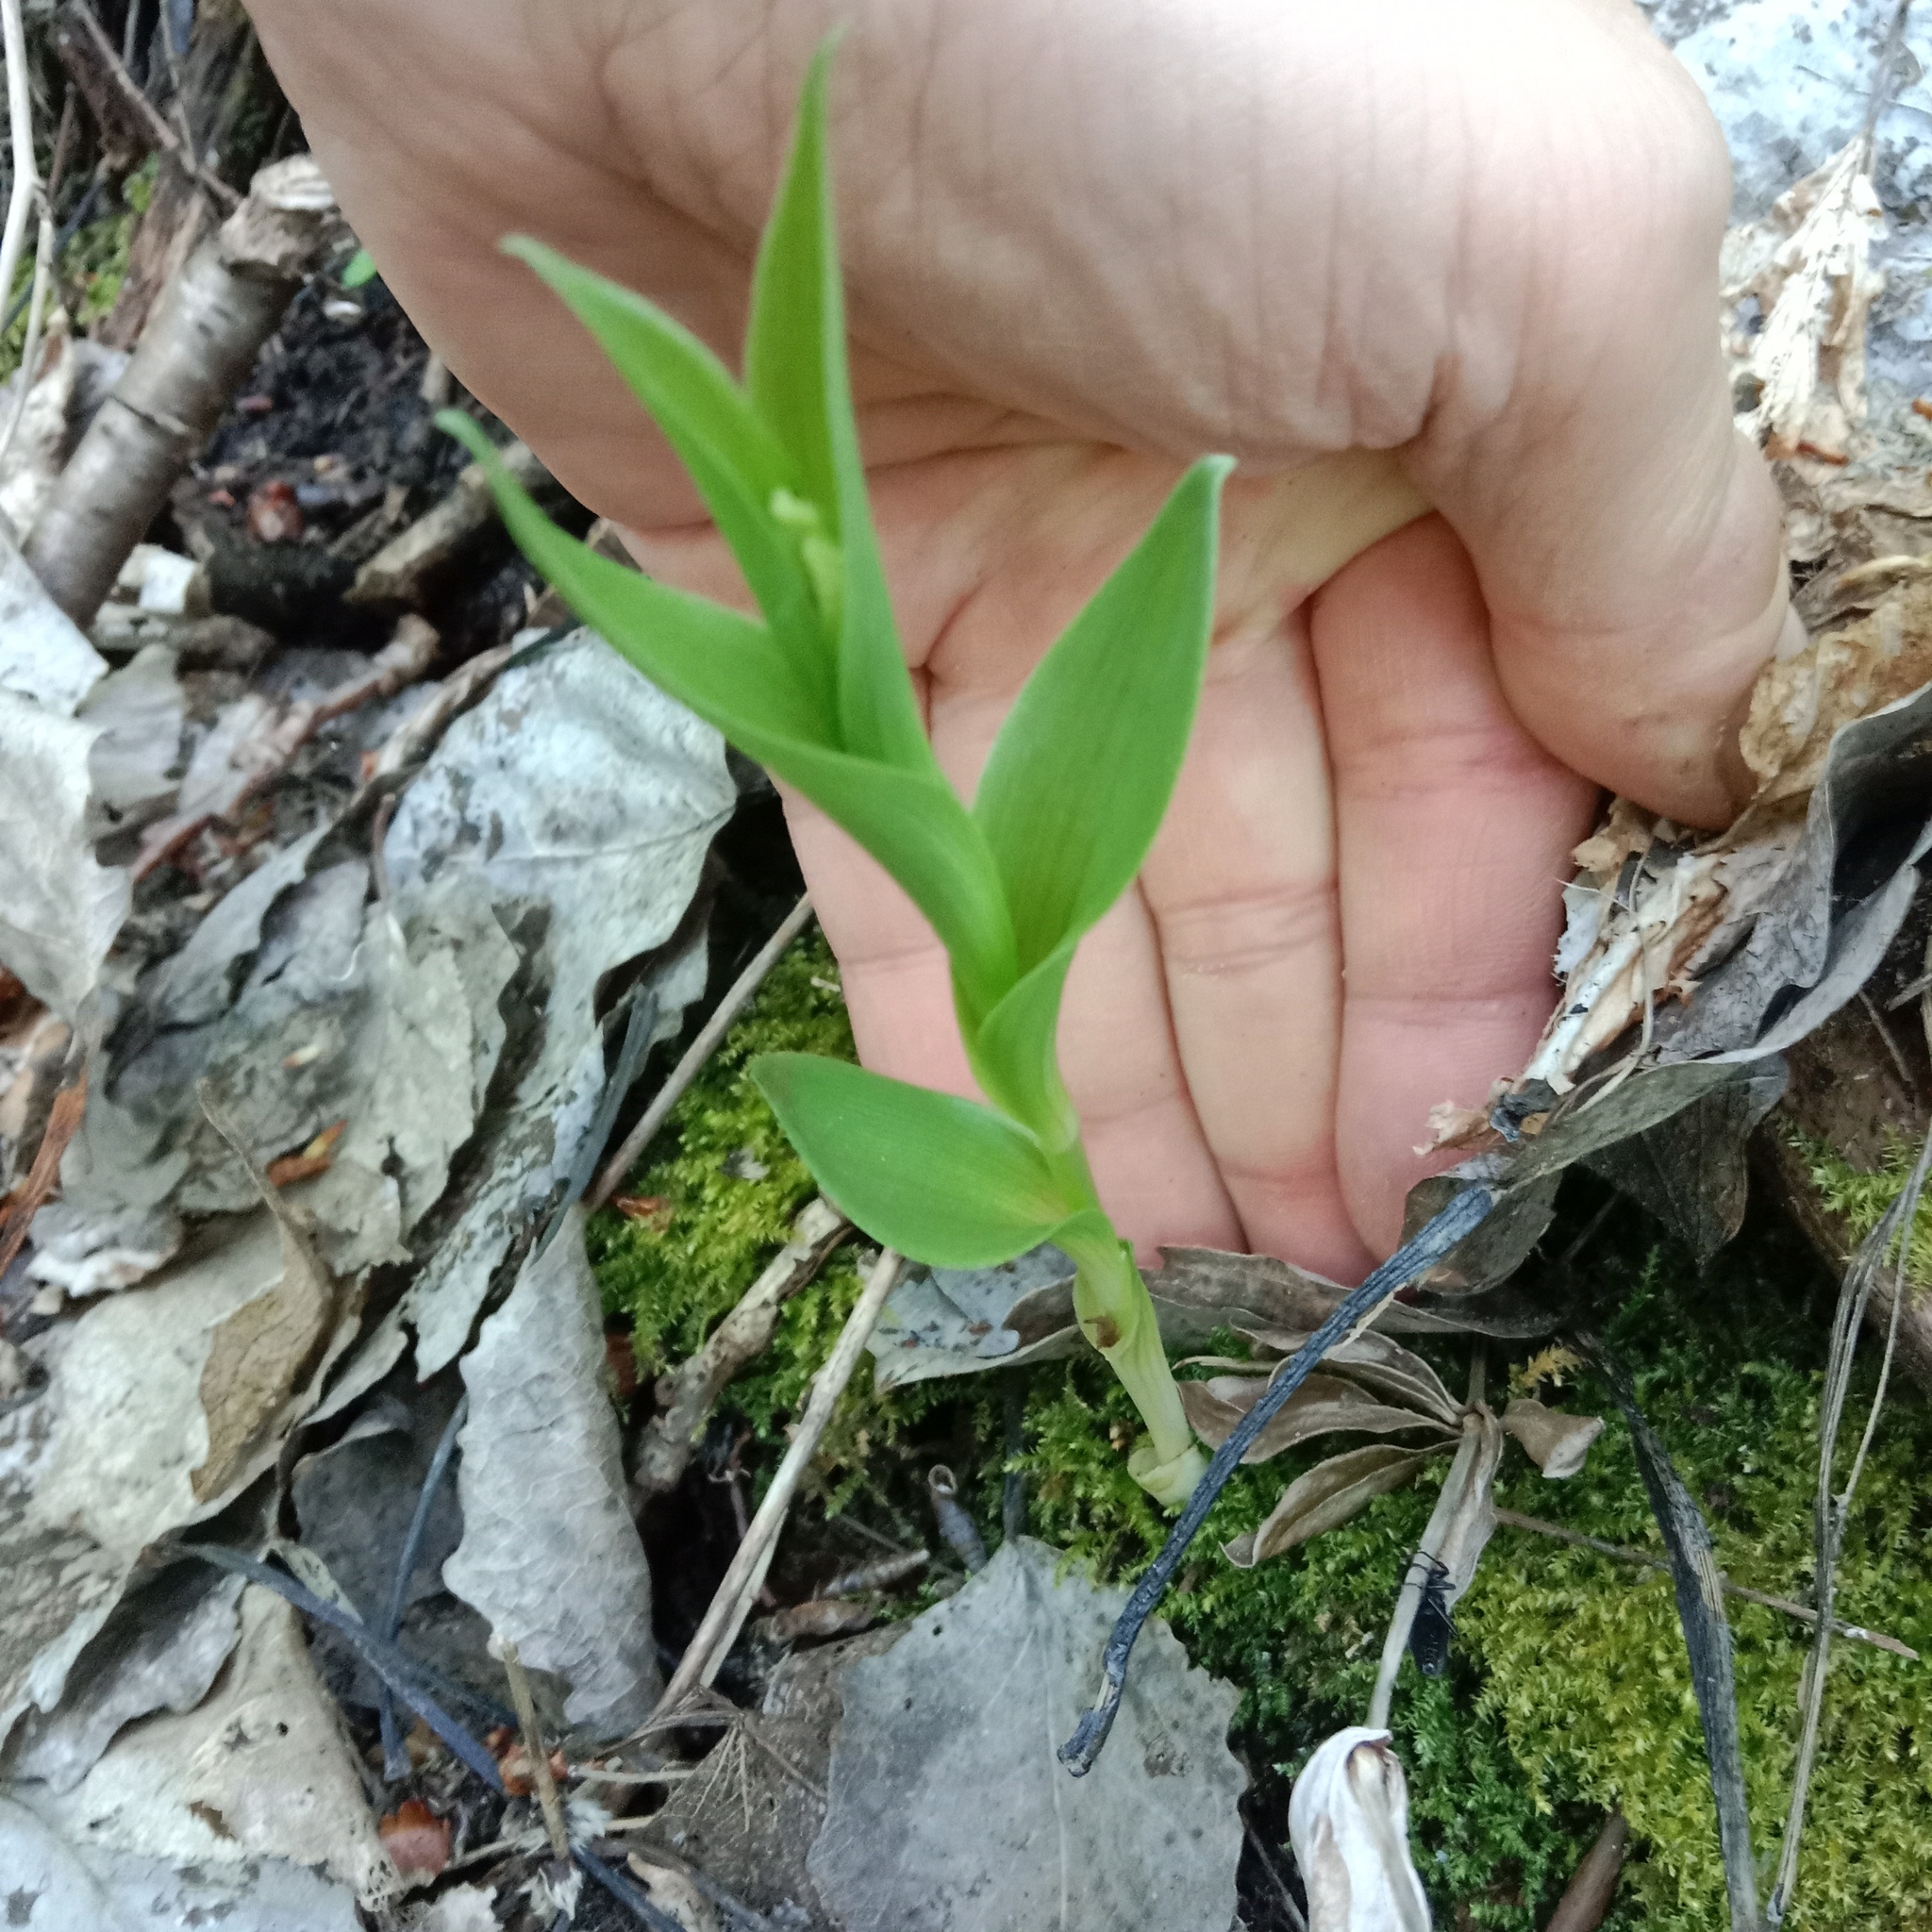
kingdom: Plantae
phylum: Tracheophyta
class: Liliopsida
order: Asparagales
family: Orchidaceae
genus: Cephalanthera
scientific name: Cephalanthera damasonium
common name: White helleborine
